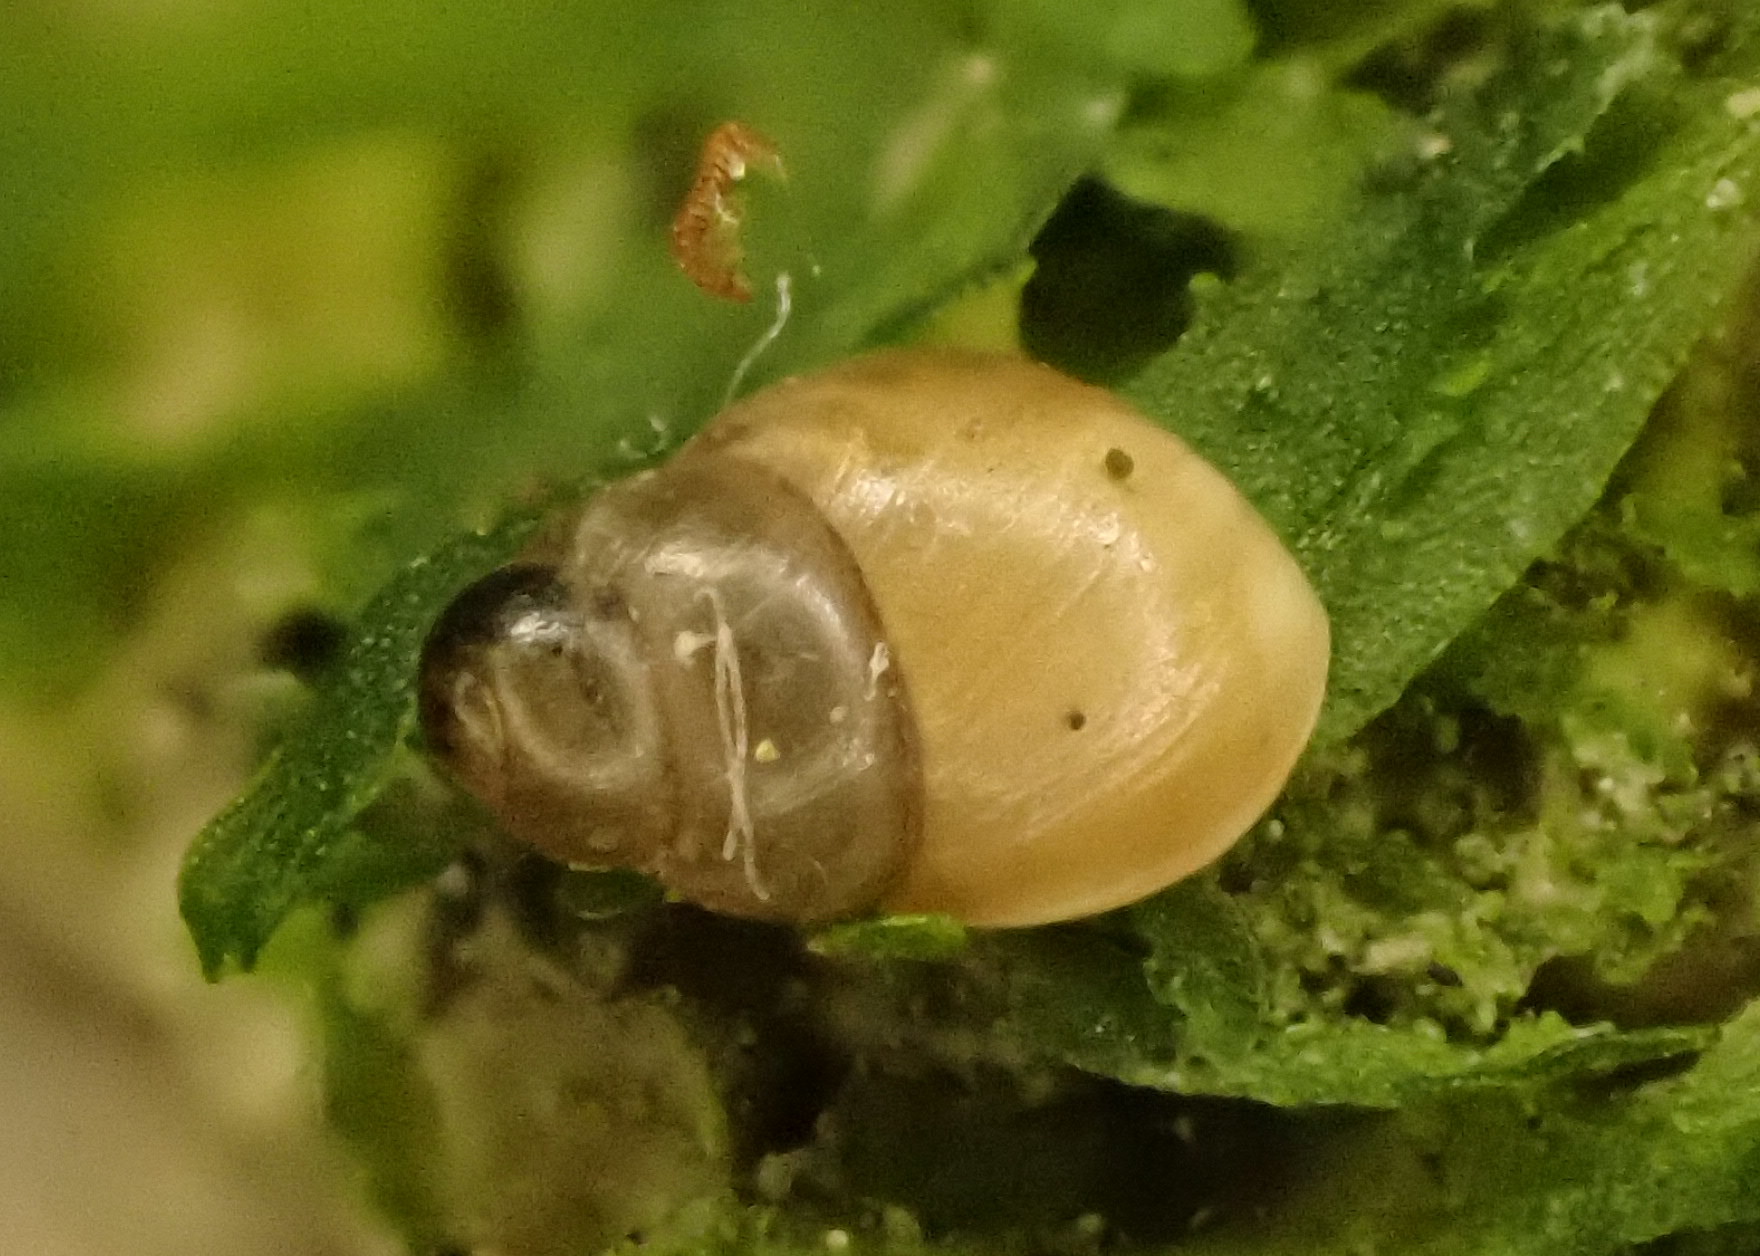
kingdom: Animalia
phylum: Mollusca
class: Gastropoda
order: Stylommatophora
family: Achatinellidae
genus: Tornatellinops
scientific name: Tornatellinops novoseelandicus
